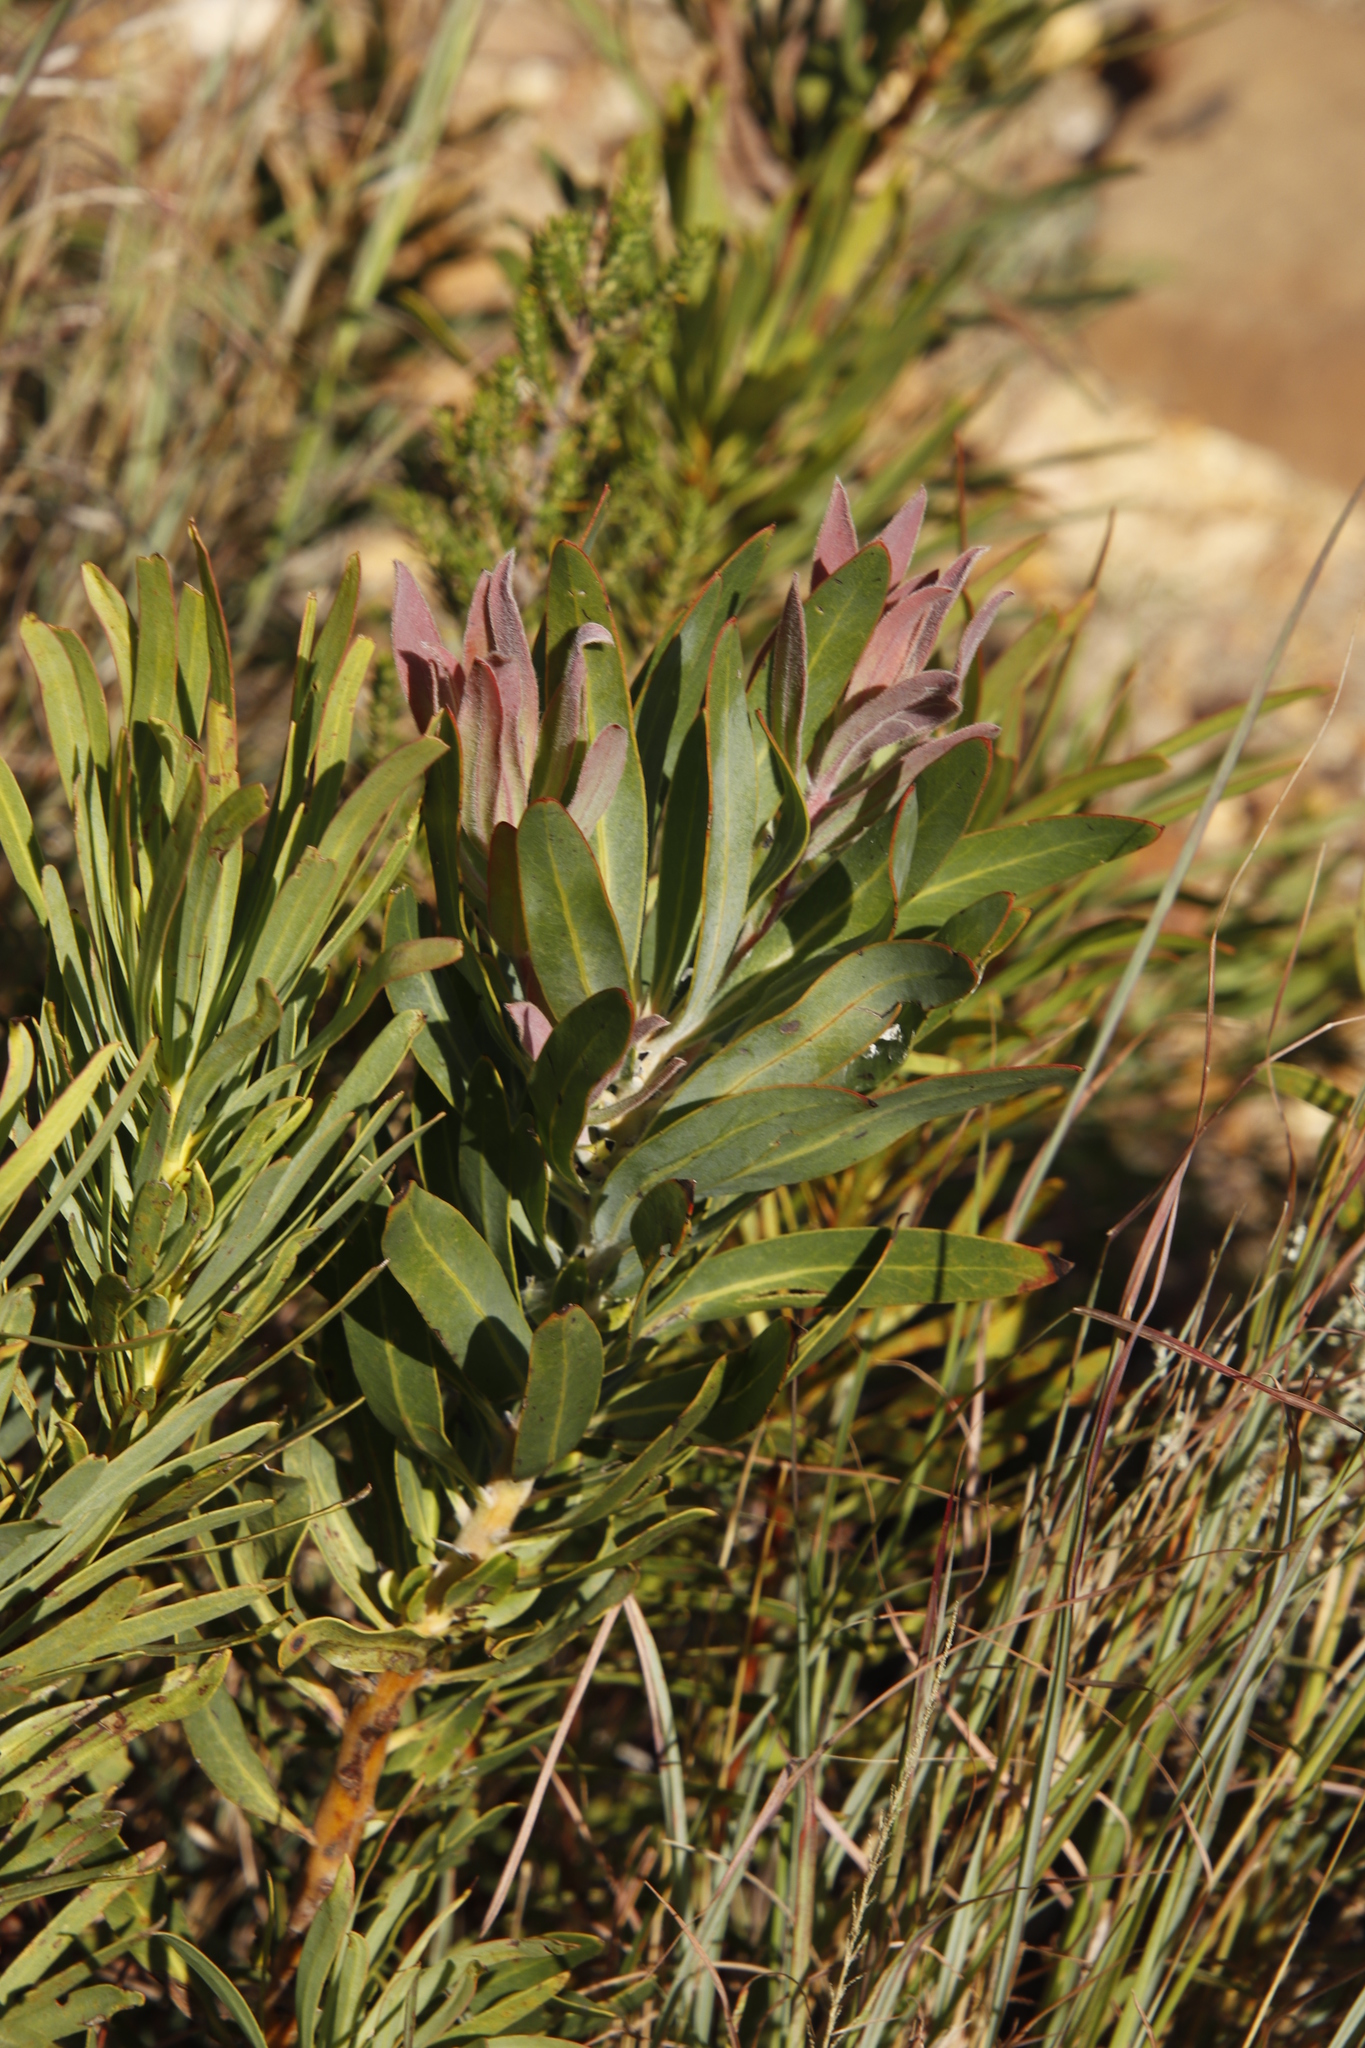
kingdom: Plantae
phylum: Tracheophyta
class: Magnoliopsida
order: Proteales
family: Proteaceae
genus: Protea
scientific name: Protea laurifolia
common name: Grey-leaf sugarbsh
